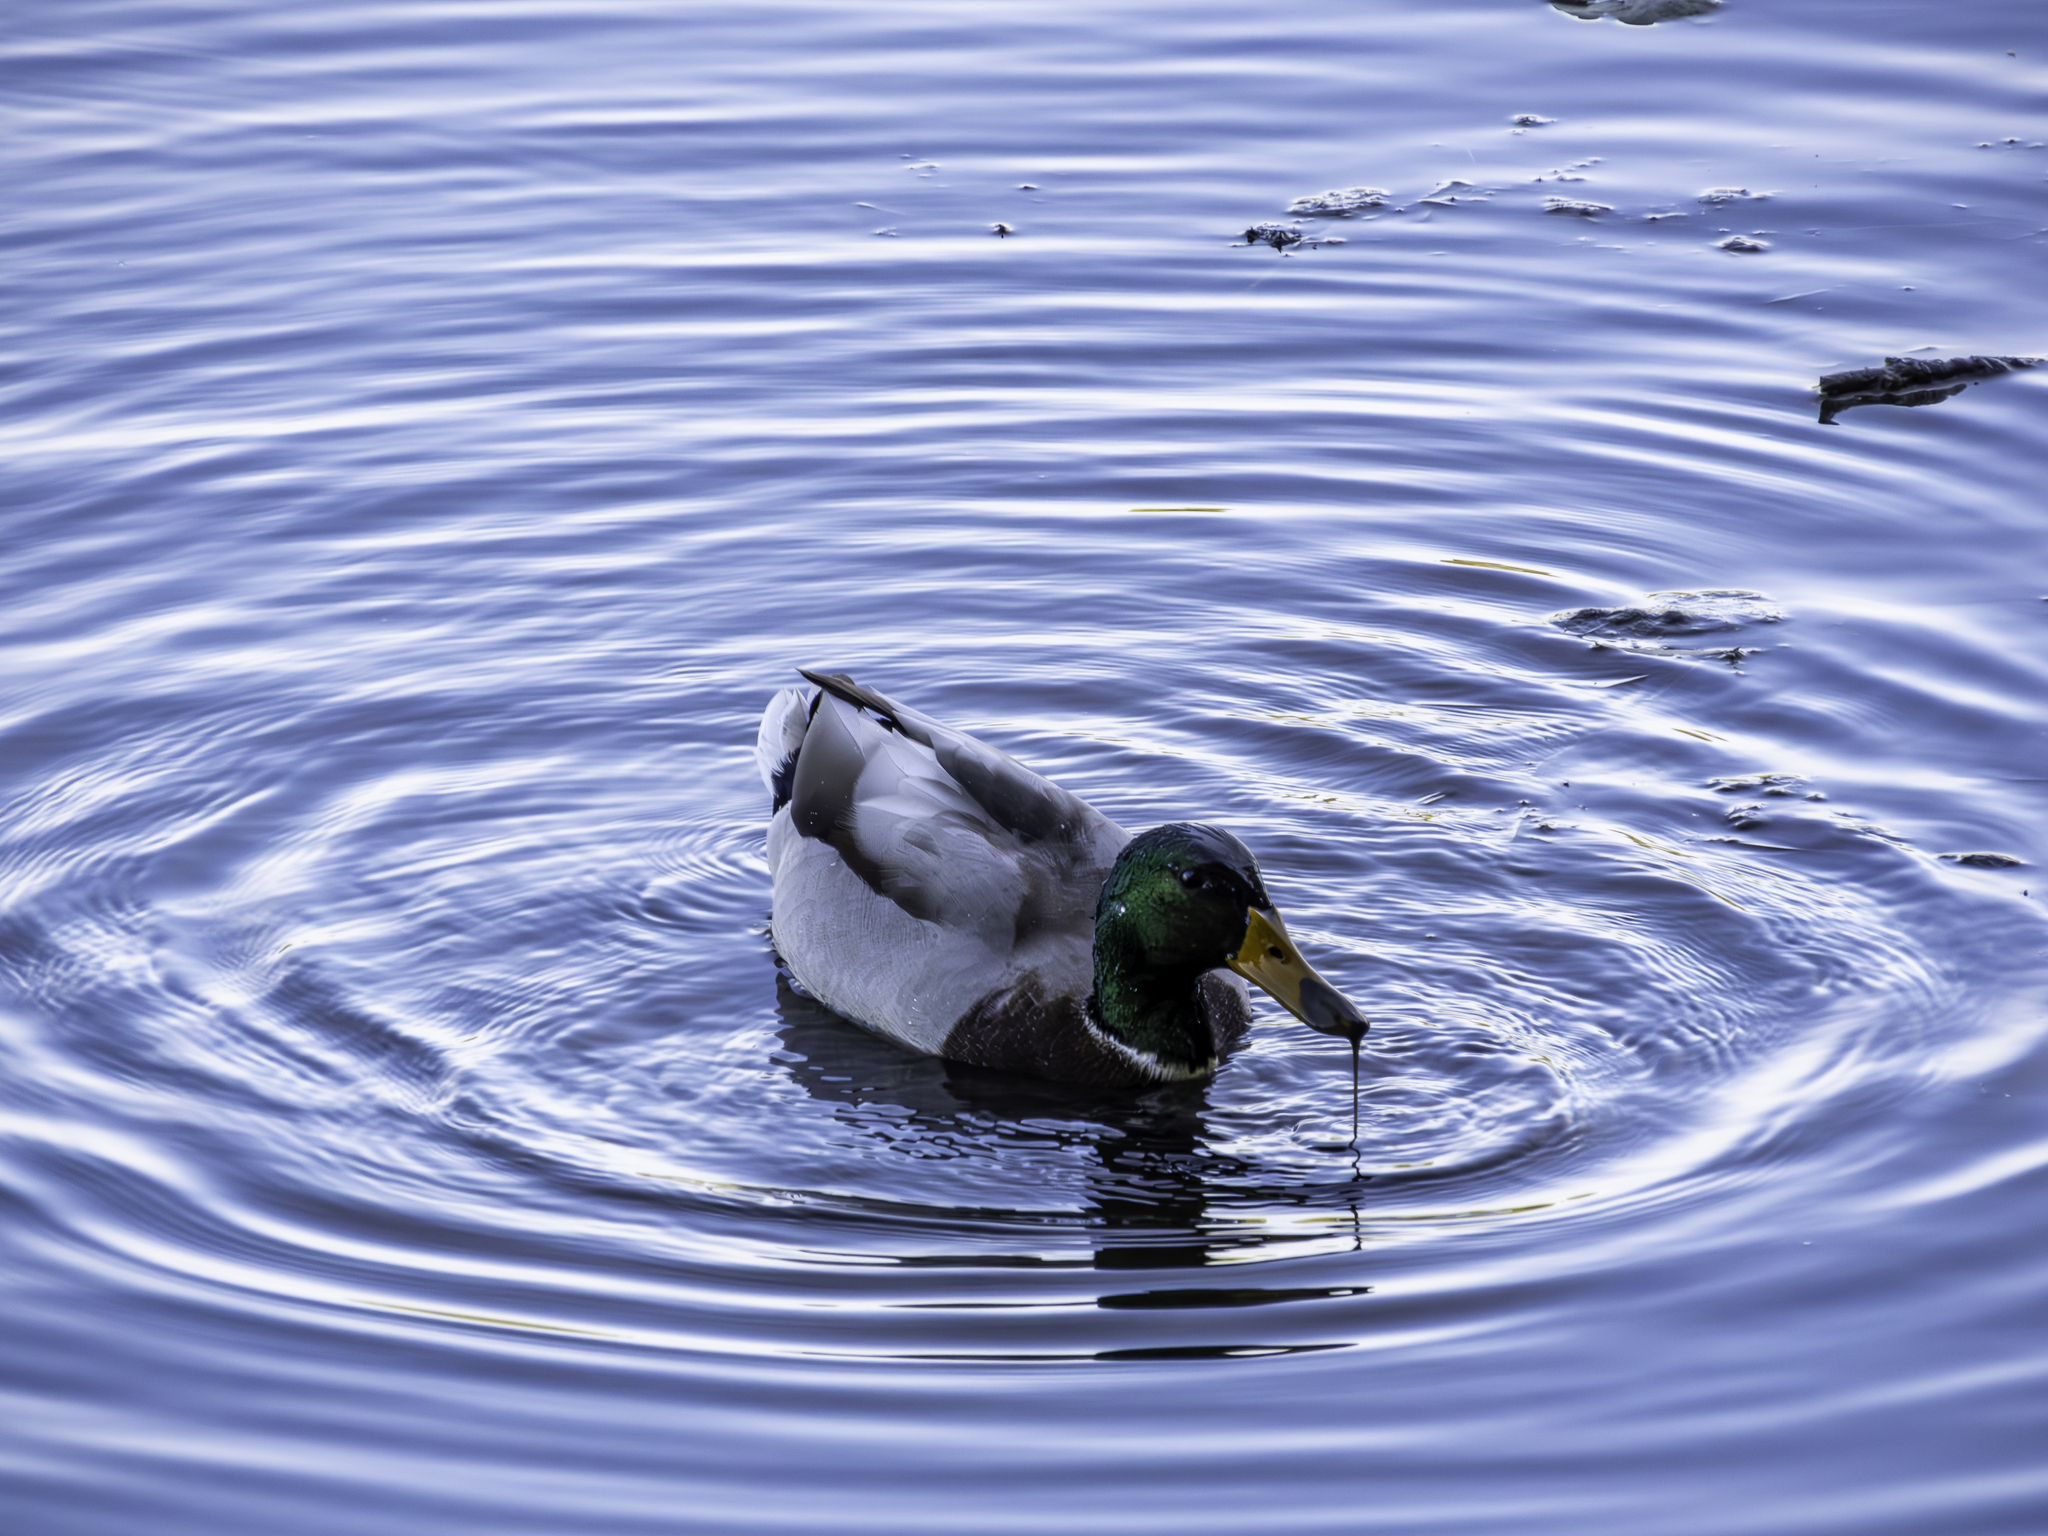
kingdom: Animalia
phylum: Chordata
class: Aves
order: Anseriformes
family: Anatidae
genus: Anas
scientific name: Anas platyrhynchos
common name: Mallard
